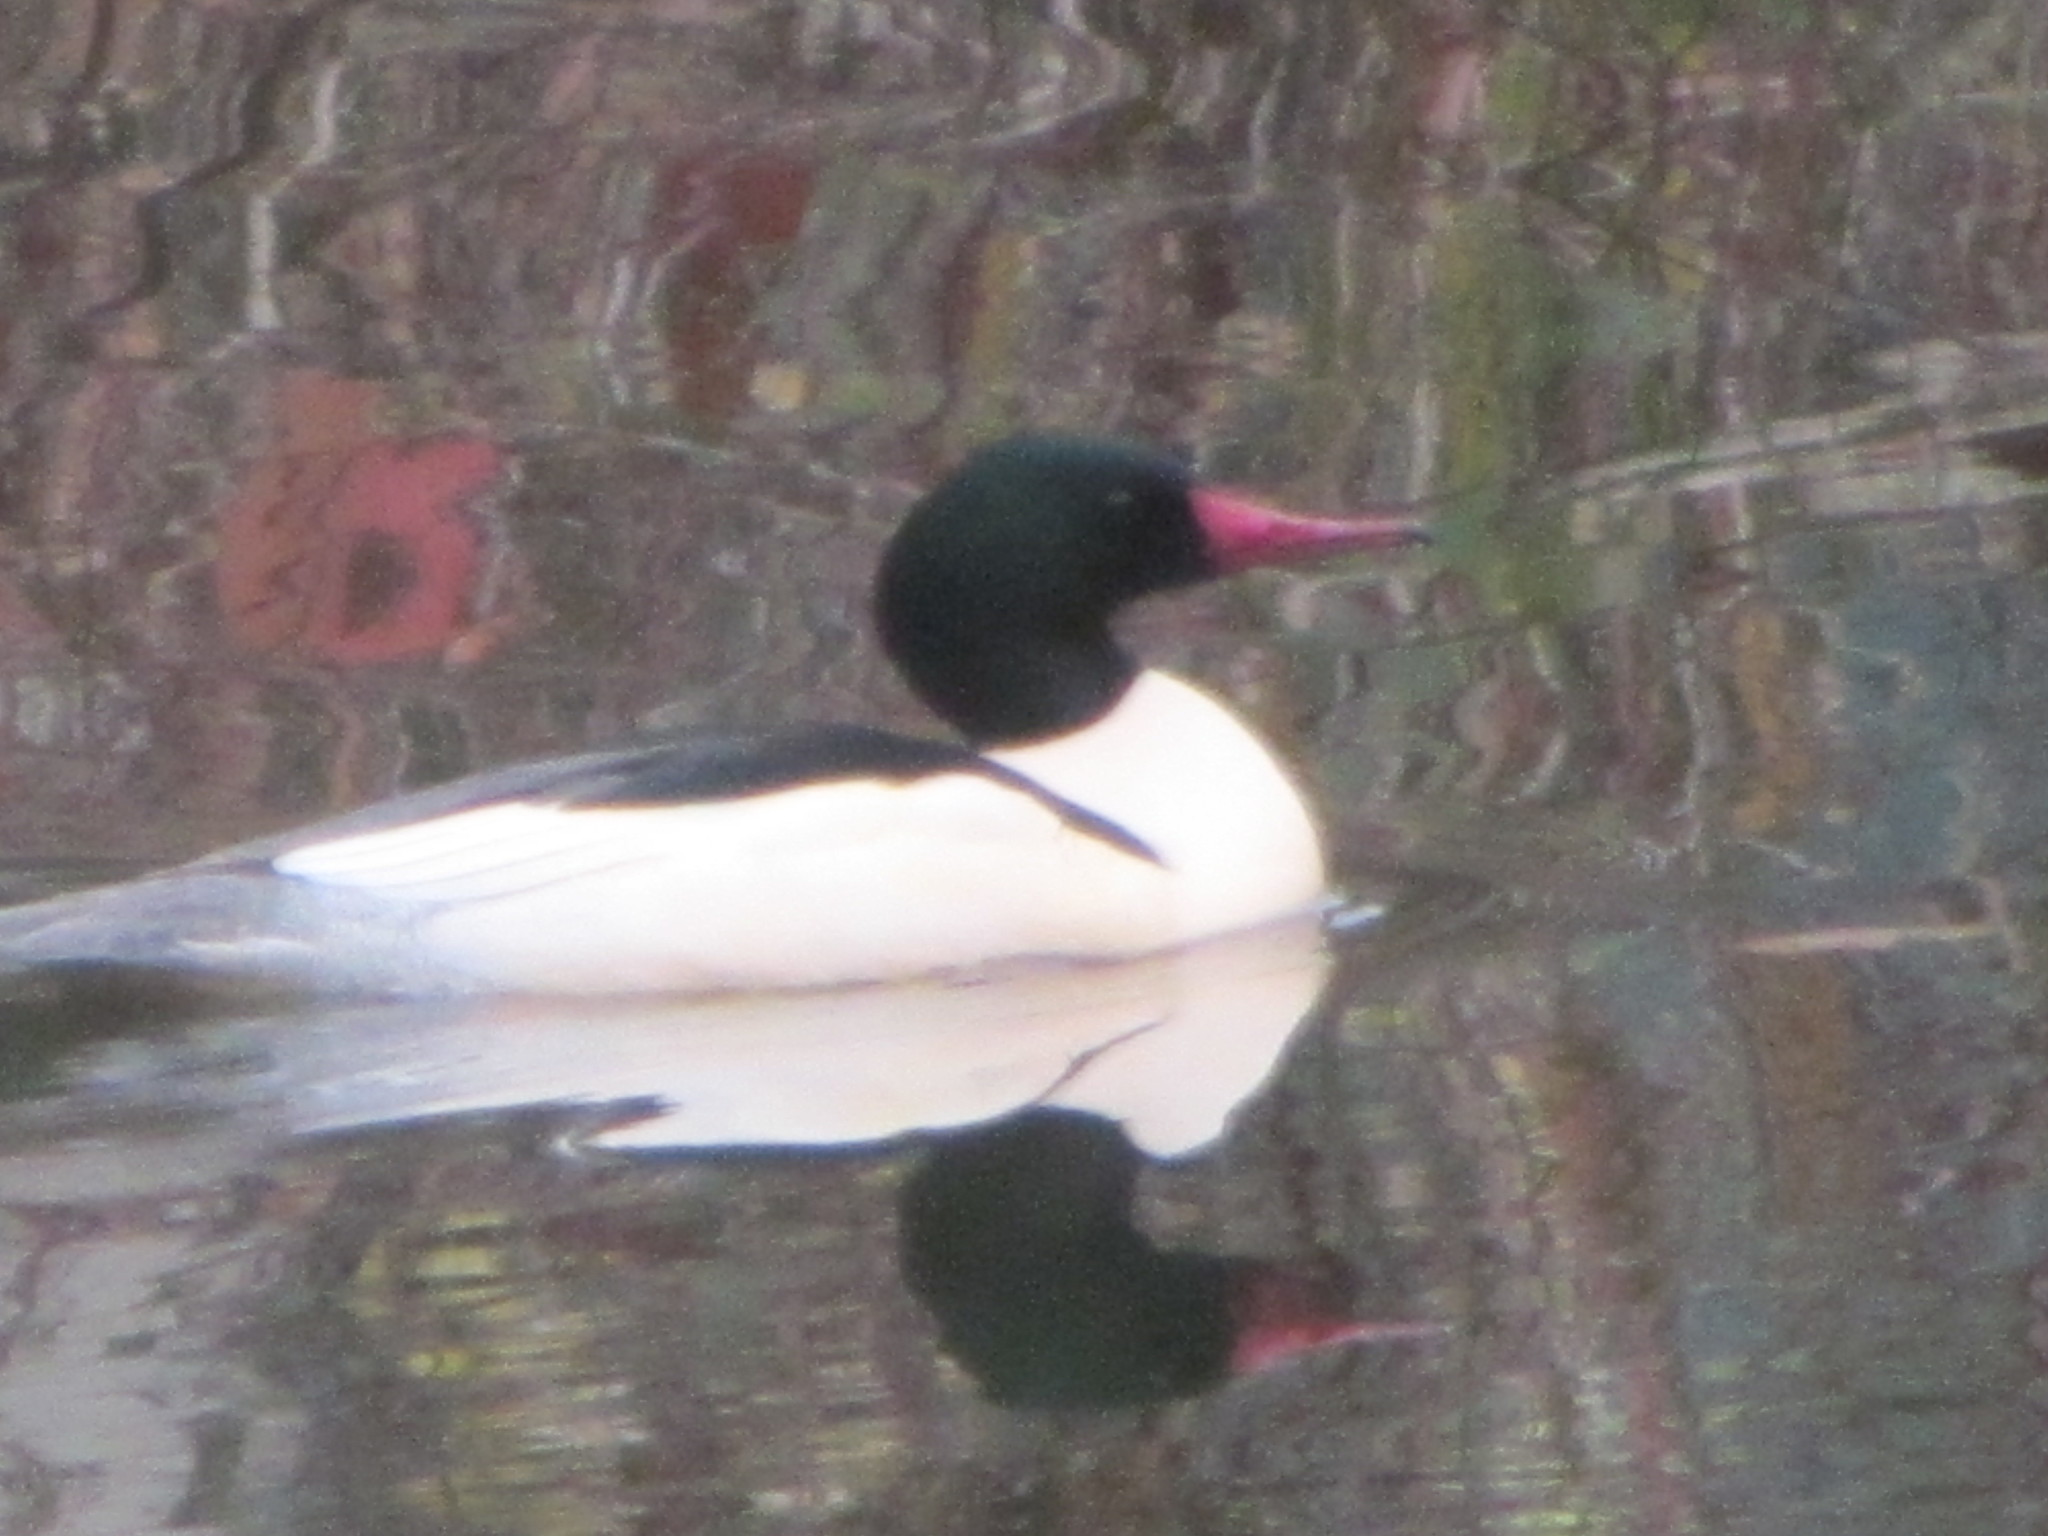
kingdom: Animalia
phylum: Chordata
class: Aves
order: Anseriformes
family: Anatidae
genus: Mergus
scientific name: Mergus merganser
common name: Common merganser
